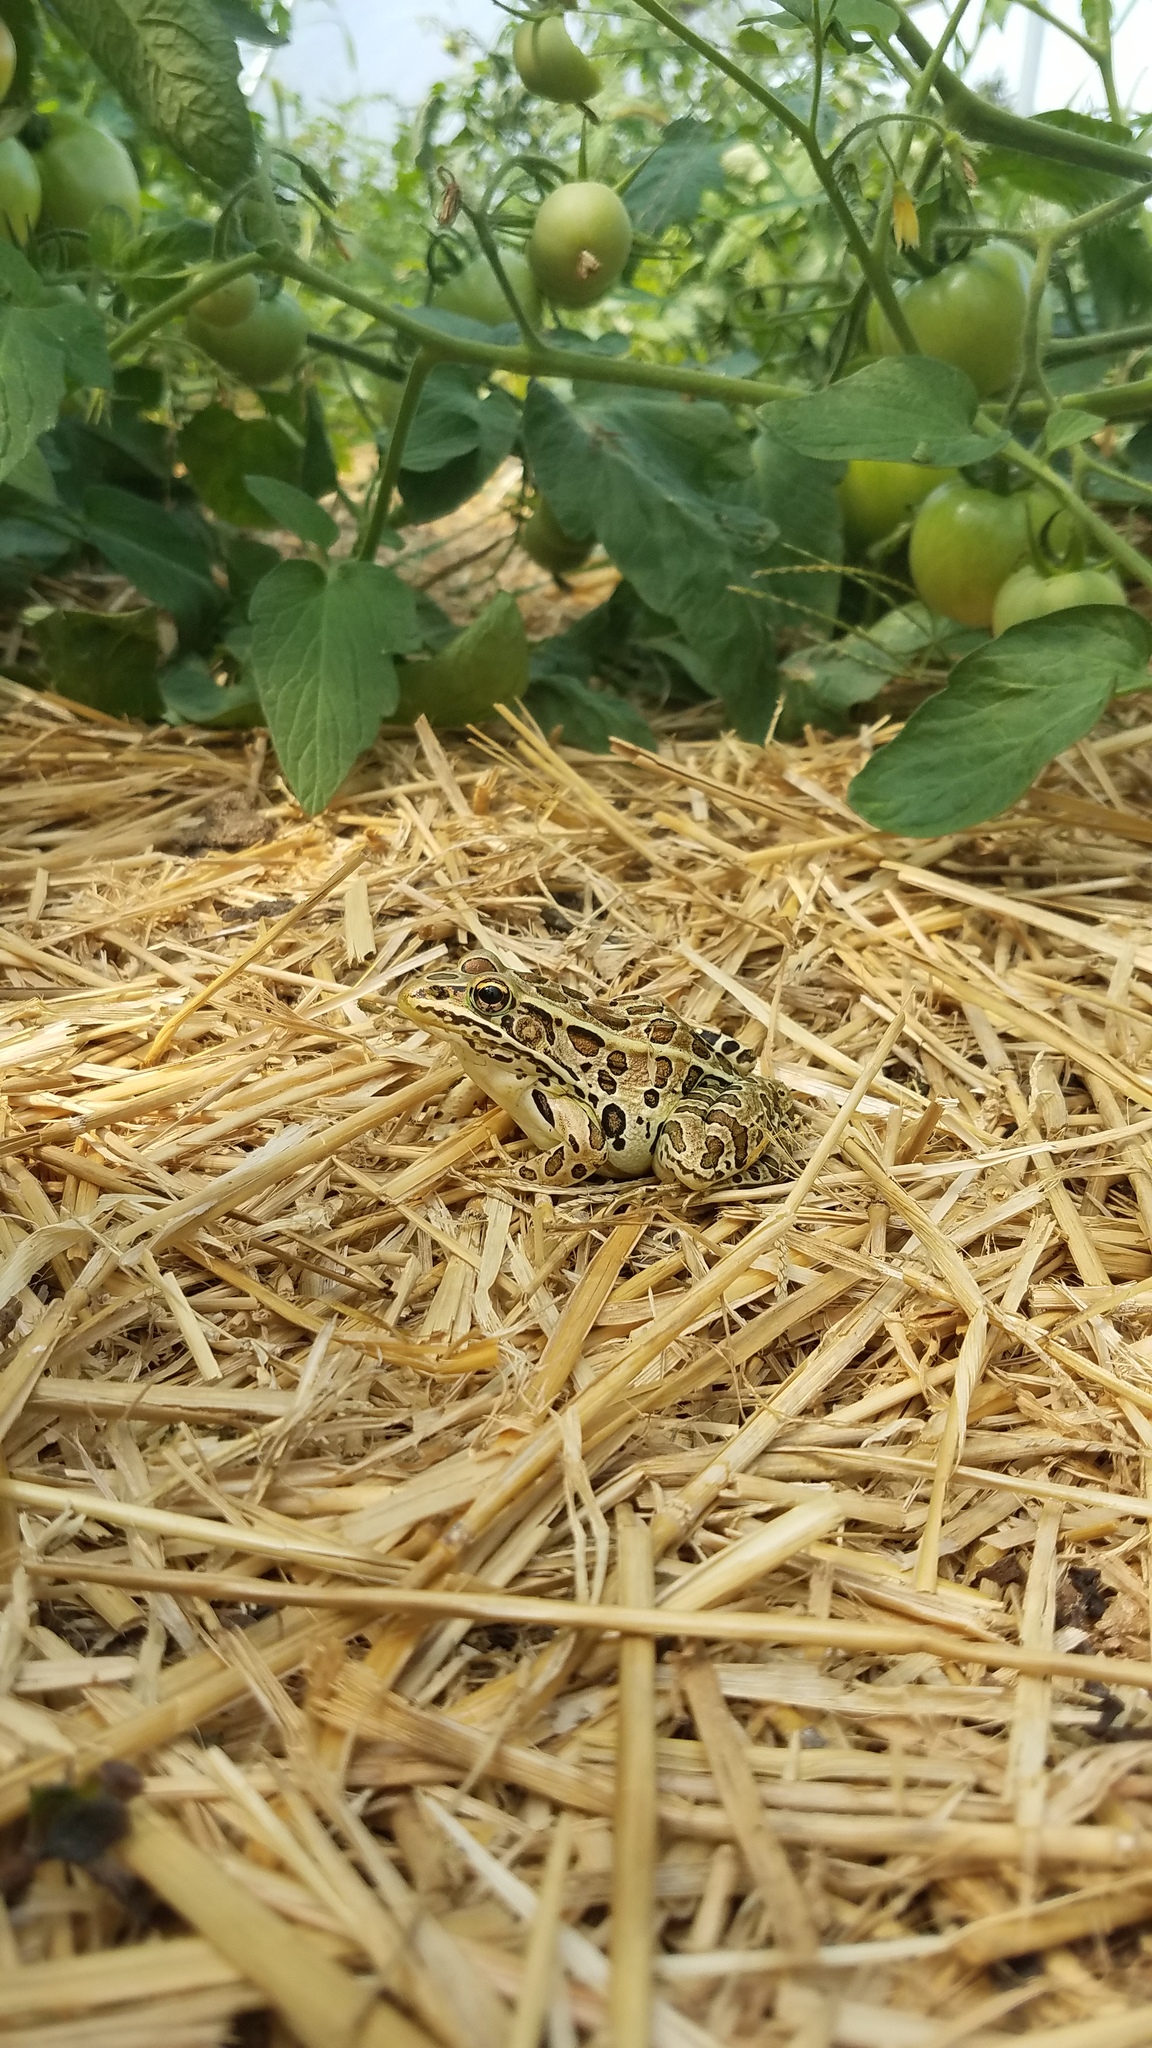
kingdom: Animalia
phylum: Chordata
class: Amphibia
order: Anura
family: Ranidae
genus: Lithobates
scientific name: Lithobates pipiens
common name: Northern leopard frog
